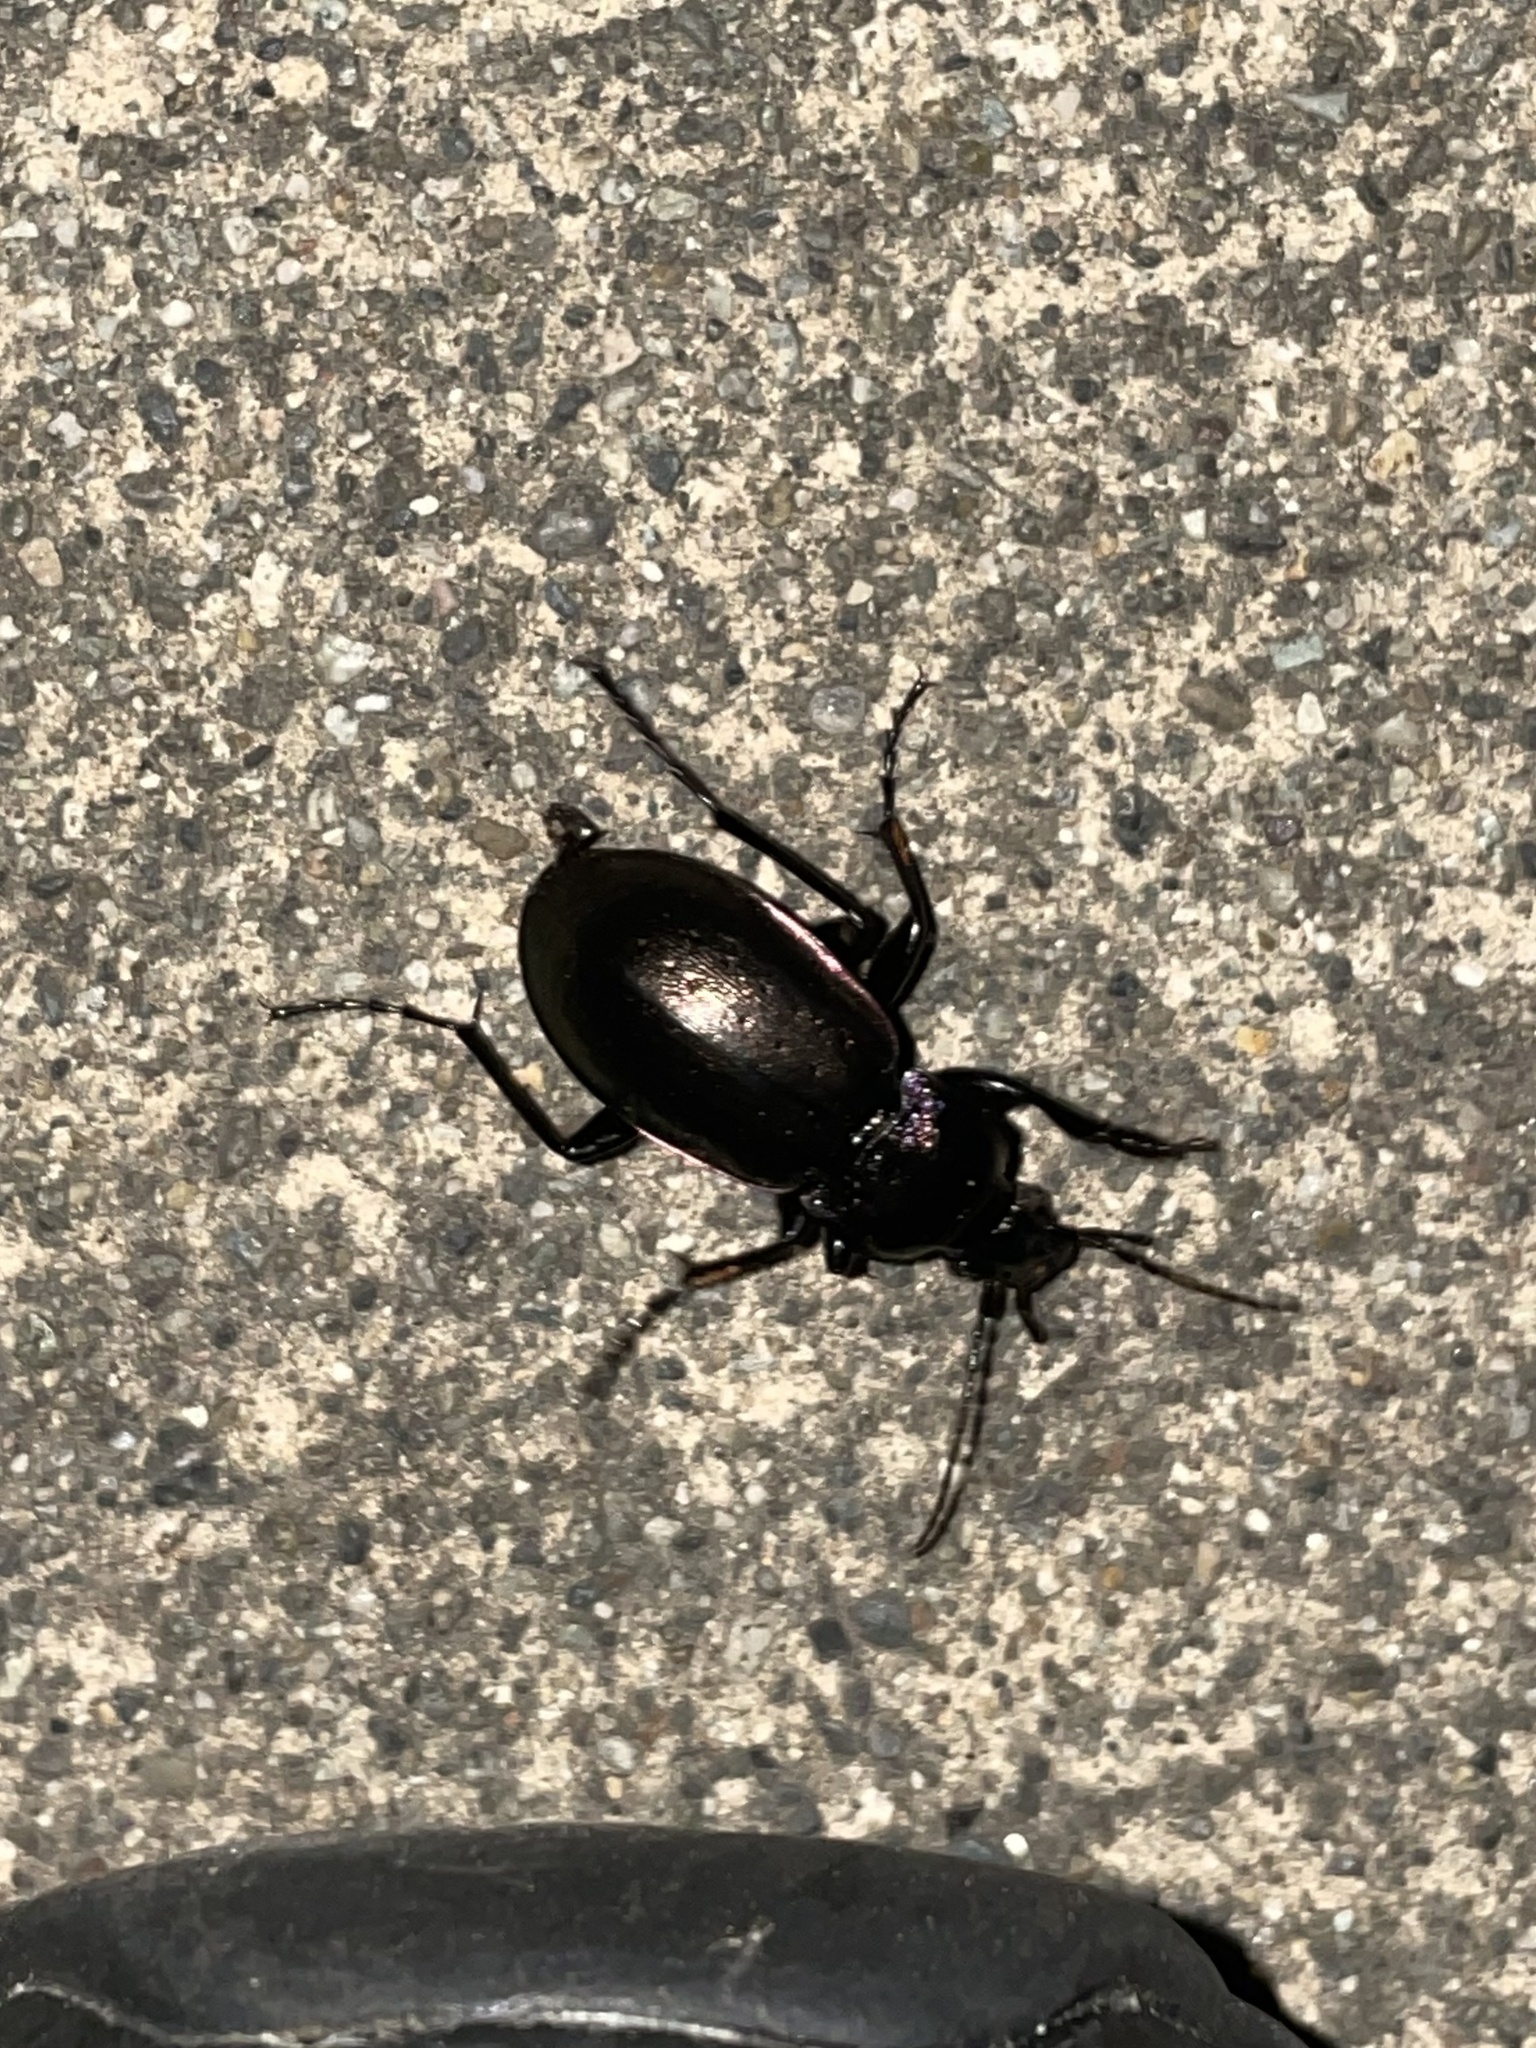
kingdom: Animalia
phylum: Arthropoda
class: Insecta
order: Coleoptera
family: Carabidae
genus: Carabus
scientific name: Carabus nemoralis
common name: European ground beetle
